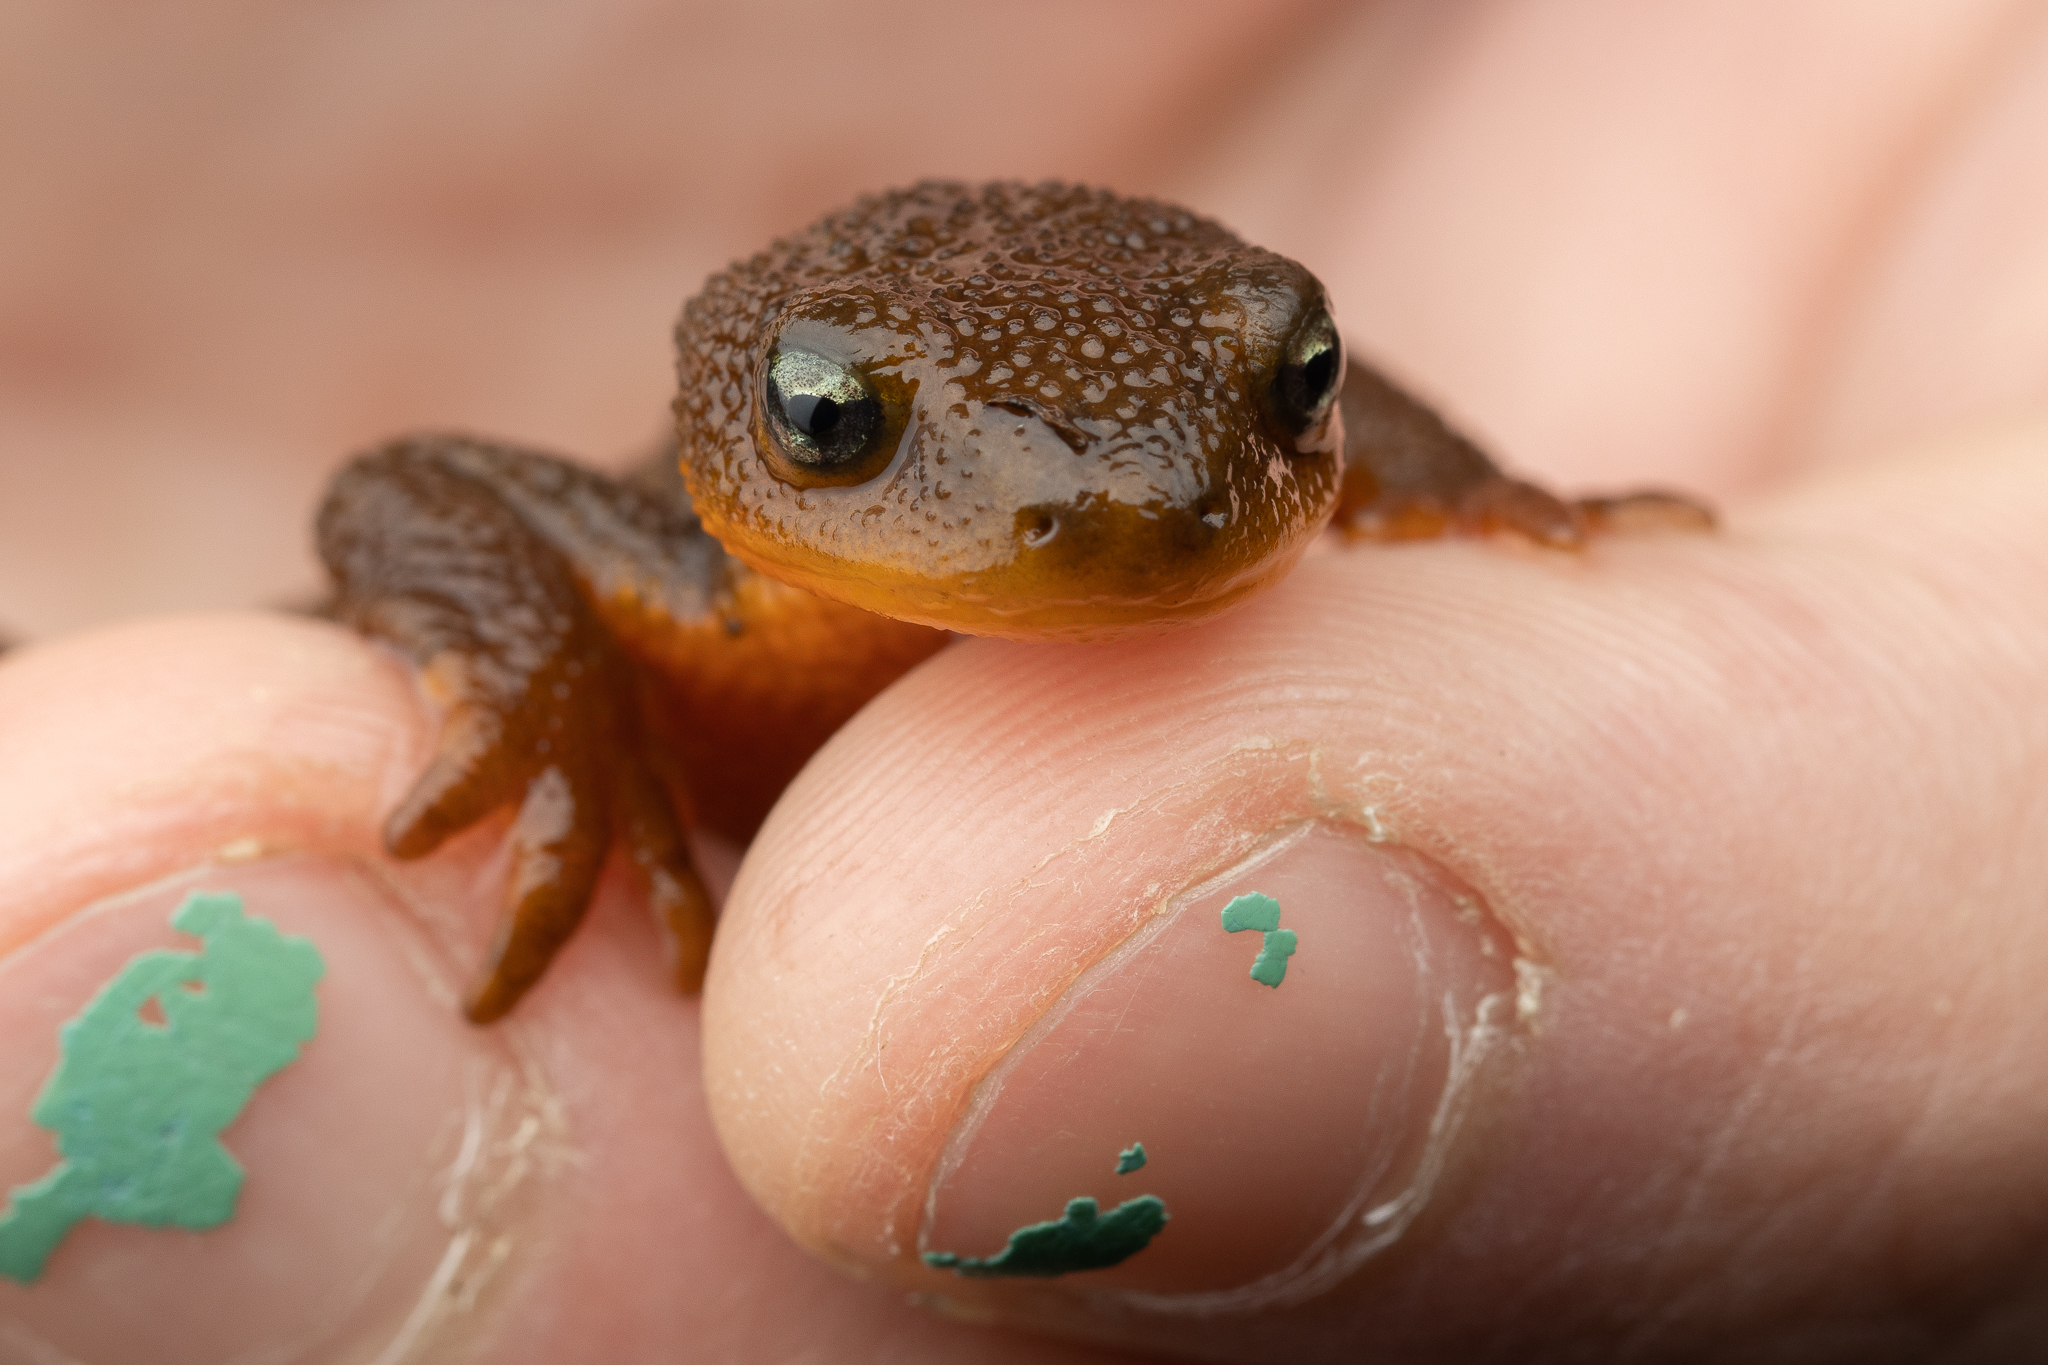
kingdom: Animalia
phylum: Chordata
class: Amphibia
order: Caudata
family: Salamandridae
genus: Taricha
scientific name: Taricha granulosa
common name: Roughskin newt
